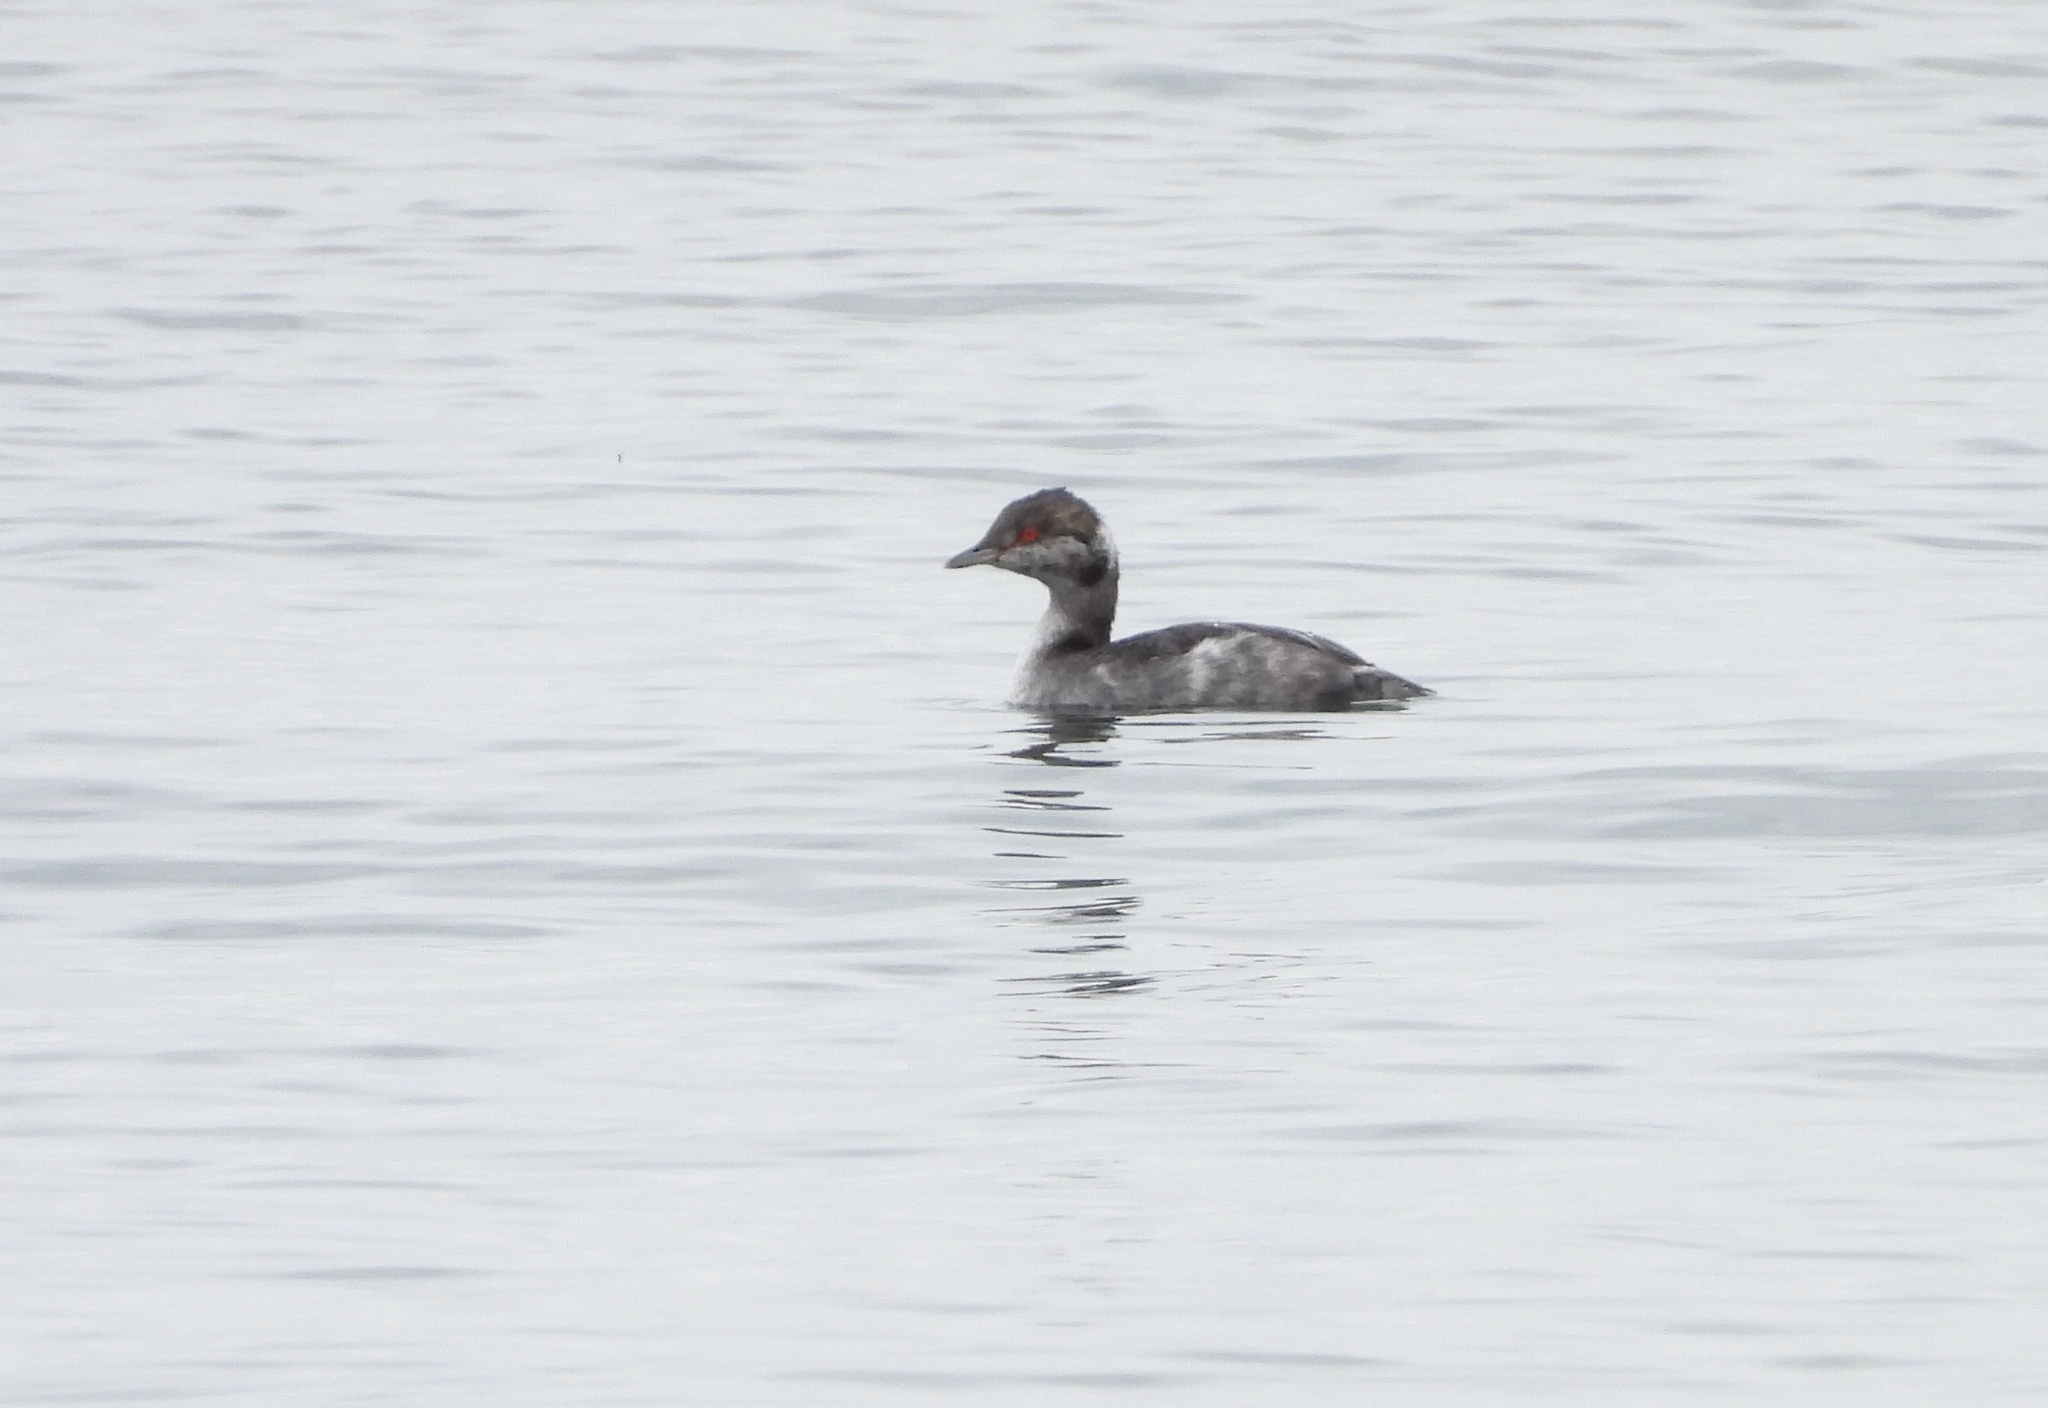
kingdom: Animalia
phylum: Chordata
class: Aves
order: Podicipediformes
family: Podicipedidae
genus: Podiceps
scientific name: Podiceps auritus
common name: Horned grebe
